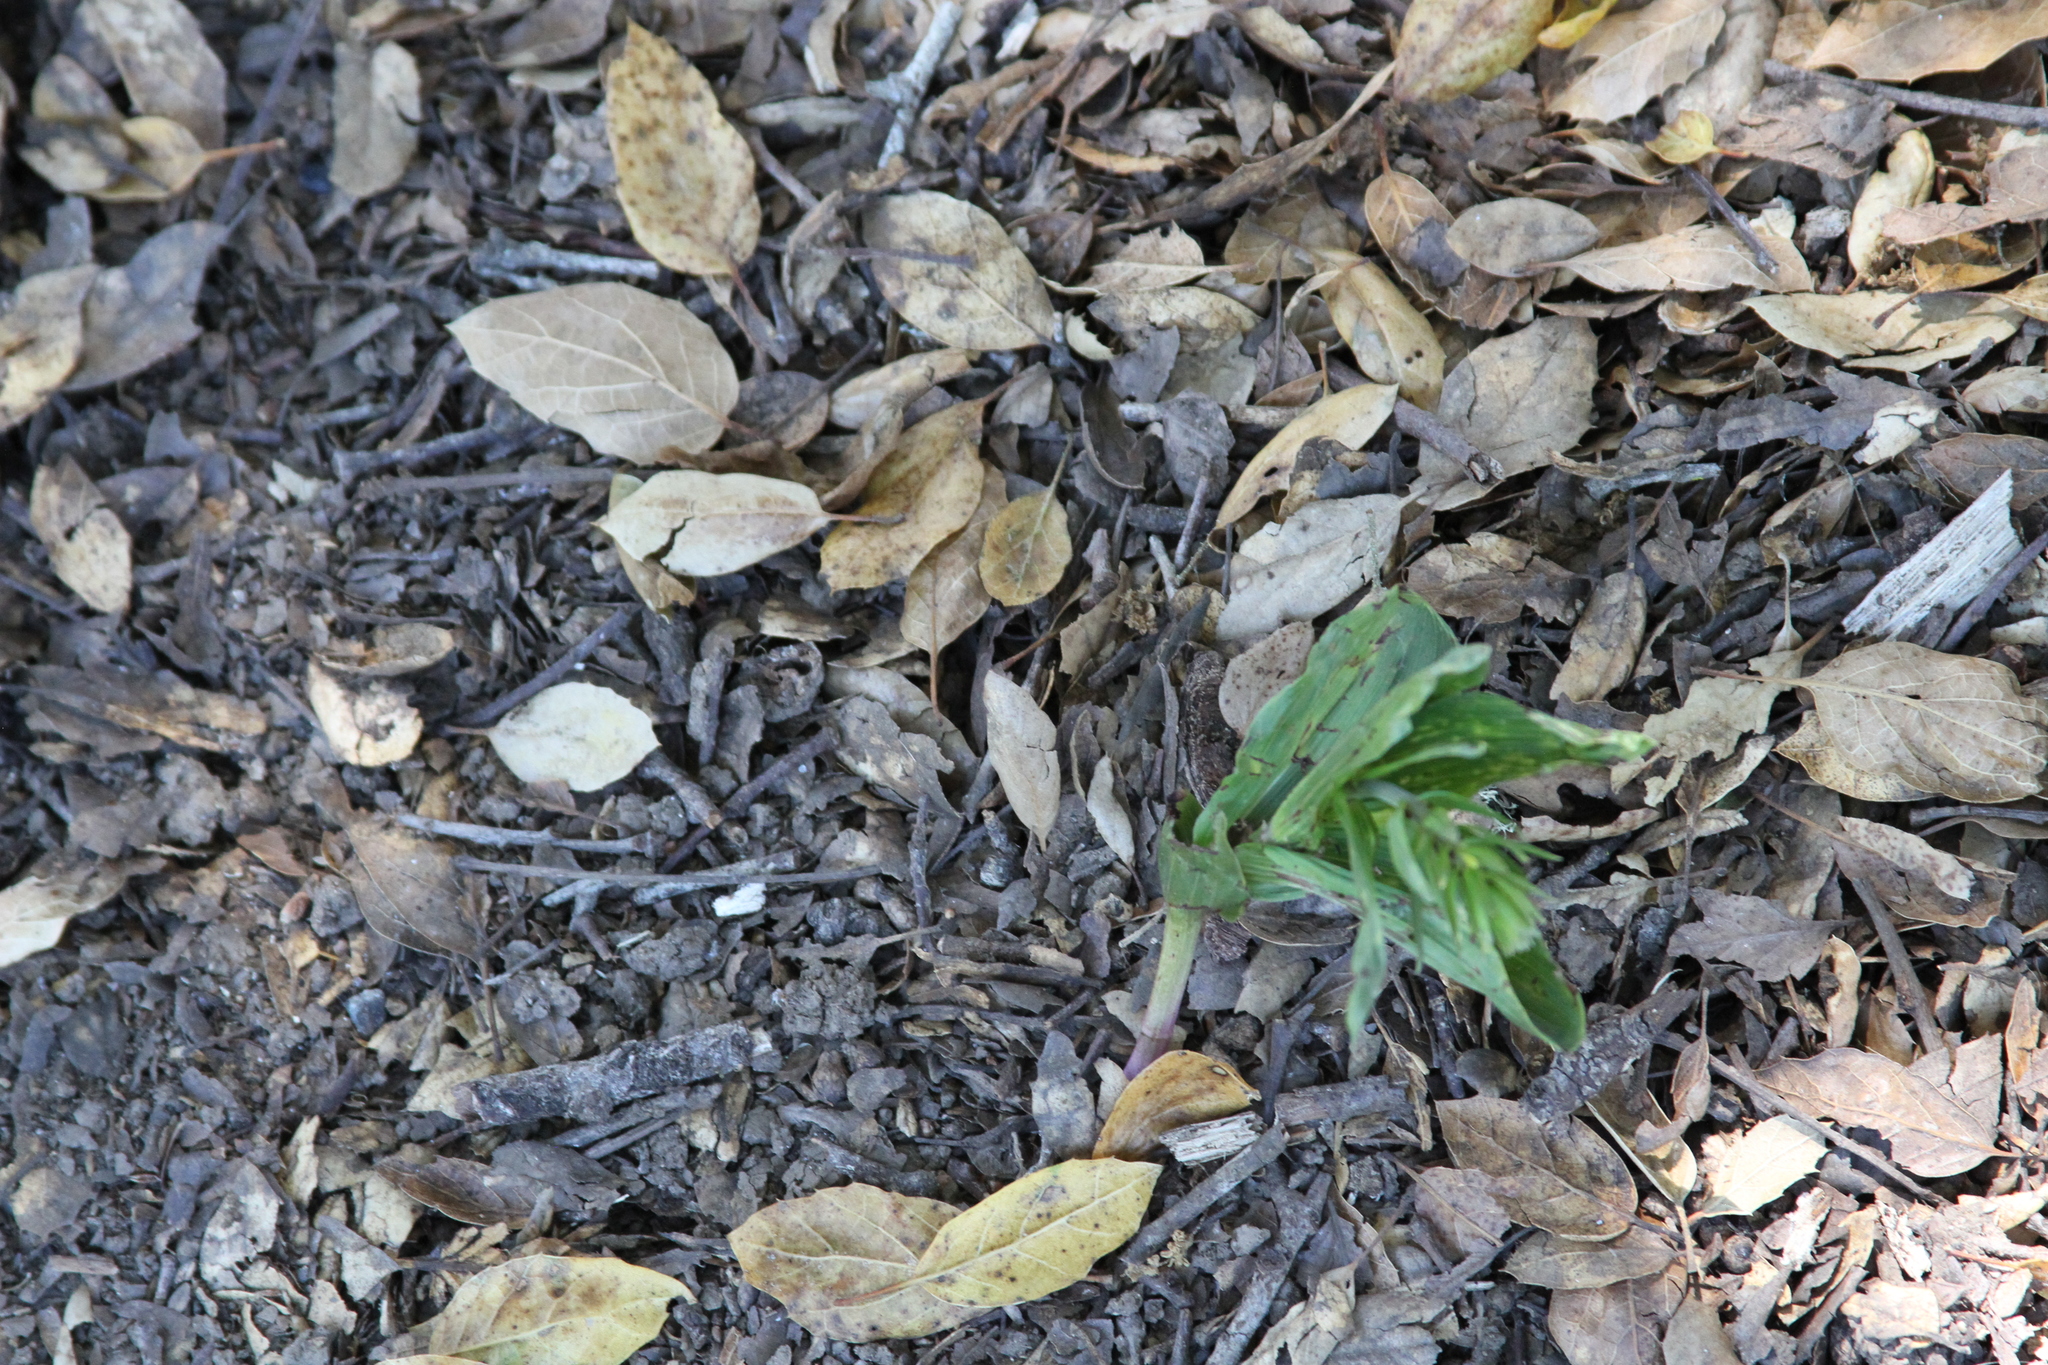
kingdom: Plantae
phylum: Tracheophyta
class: Liliopsida
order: Asparagales
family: Orchidaceae
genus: Epipactis
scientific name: Epipactis helleborine
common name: Broad-leaved helleborine
